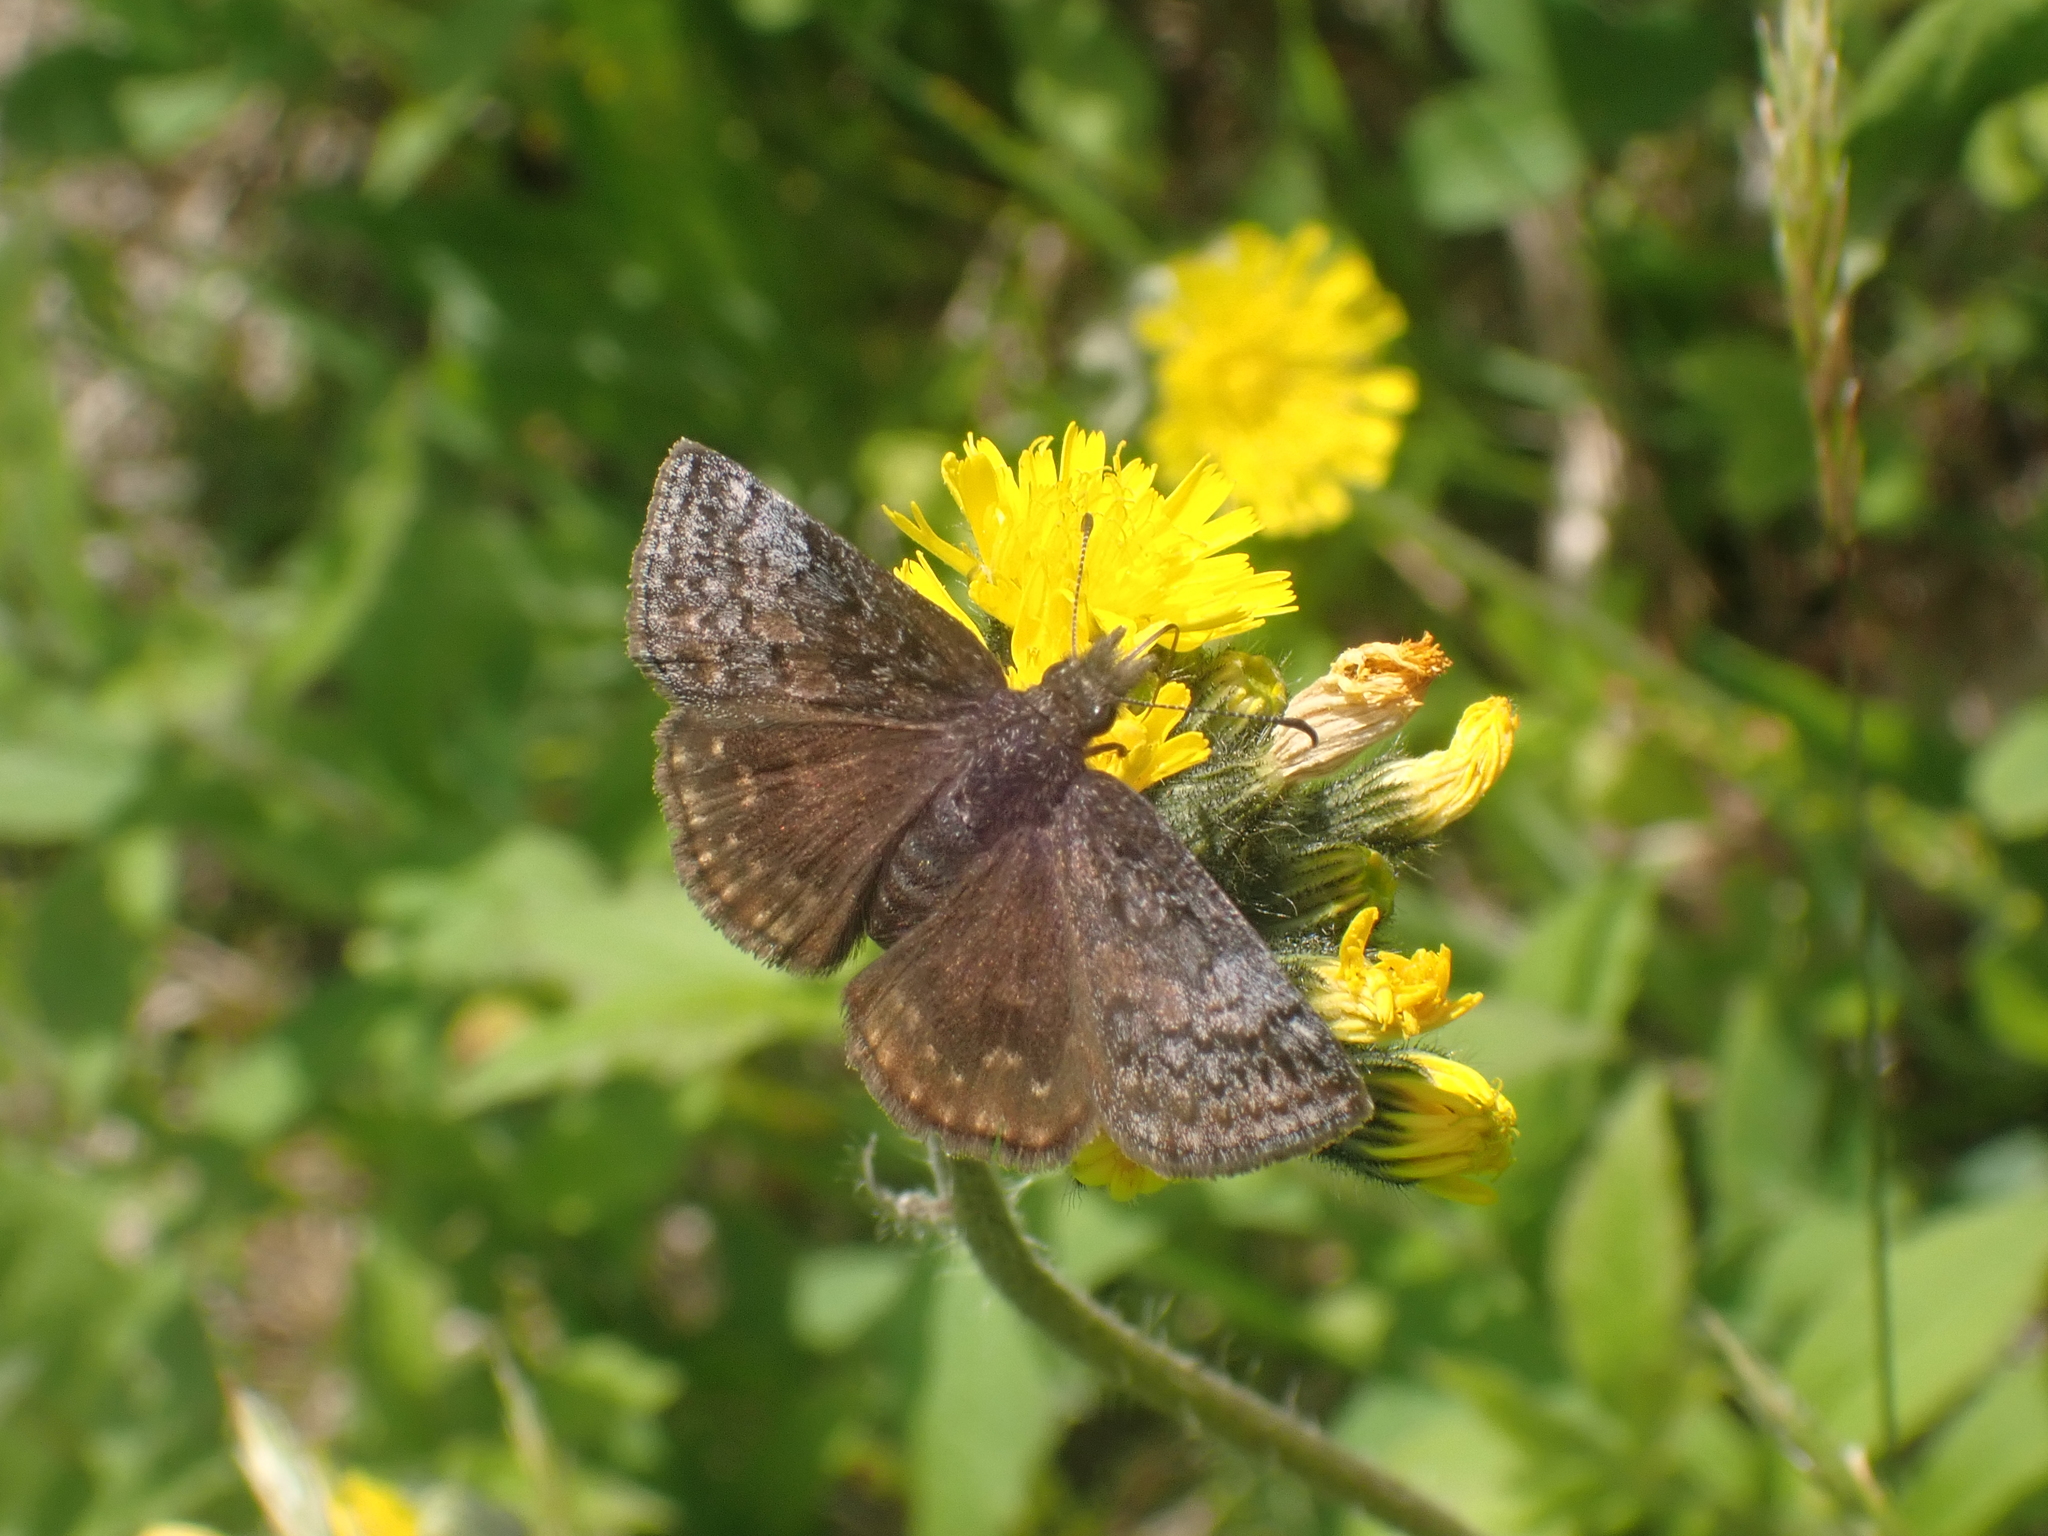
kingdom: Animalia
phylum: Arthropoda
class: Insecta
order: Lepidoptera
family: Hesperiidae
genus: Erynnis
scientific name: Erynnis icelus
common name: Dreamy duskywing
